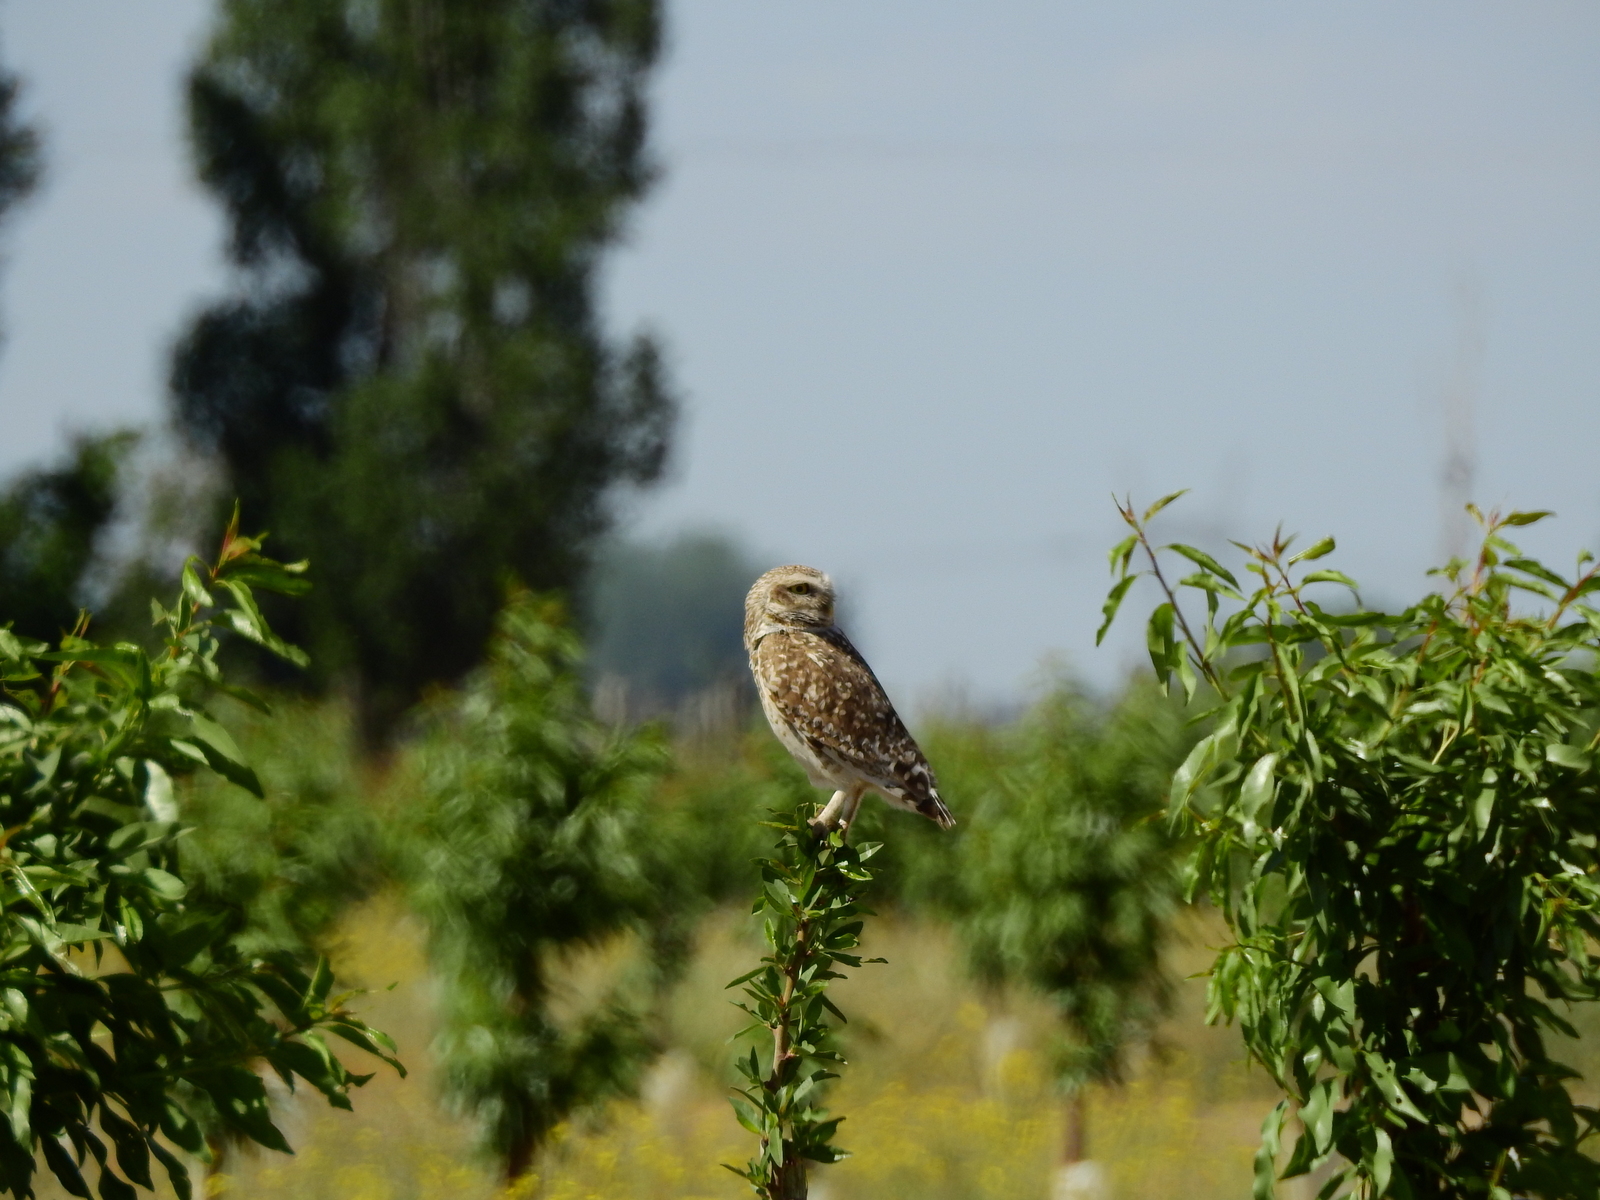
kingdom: Animalia
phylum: Chordata
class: Aves
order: Strigiformes
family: Strigidae
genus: Athene
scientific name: Athene cunicularia
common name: Burrowing owl
